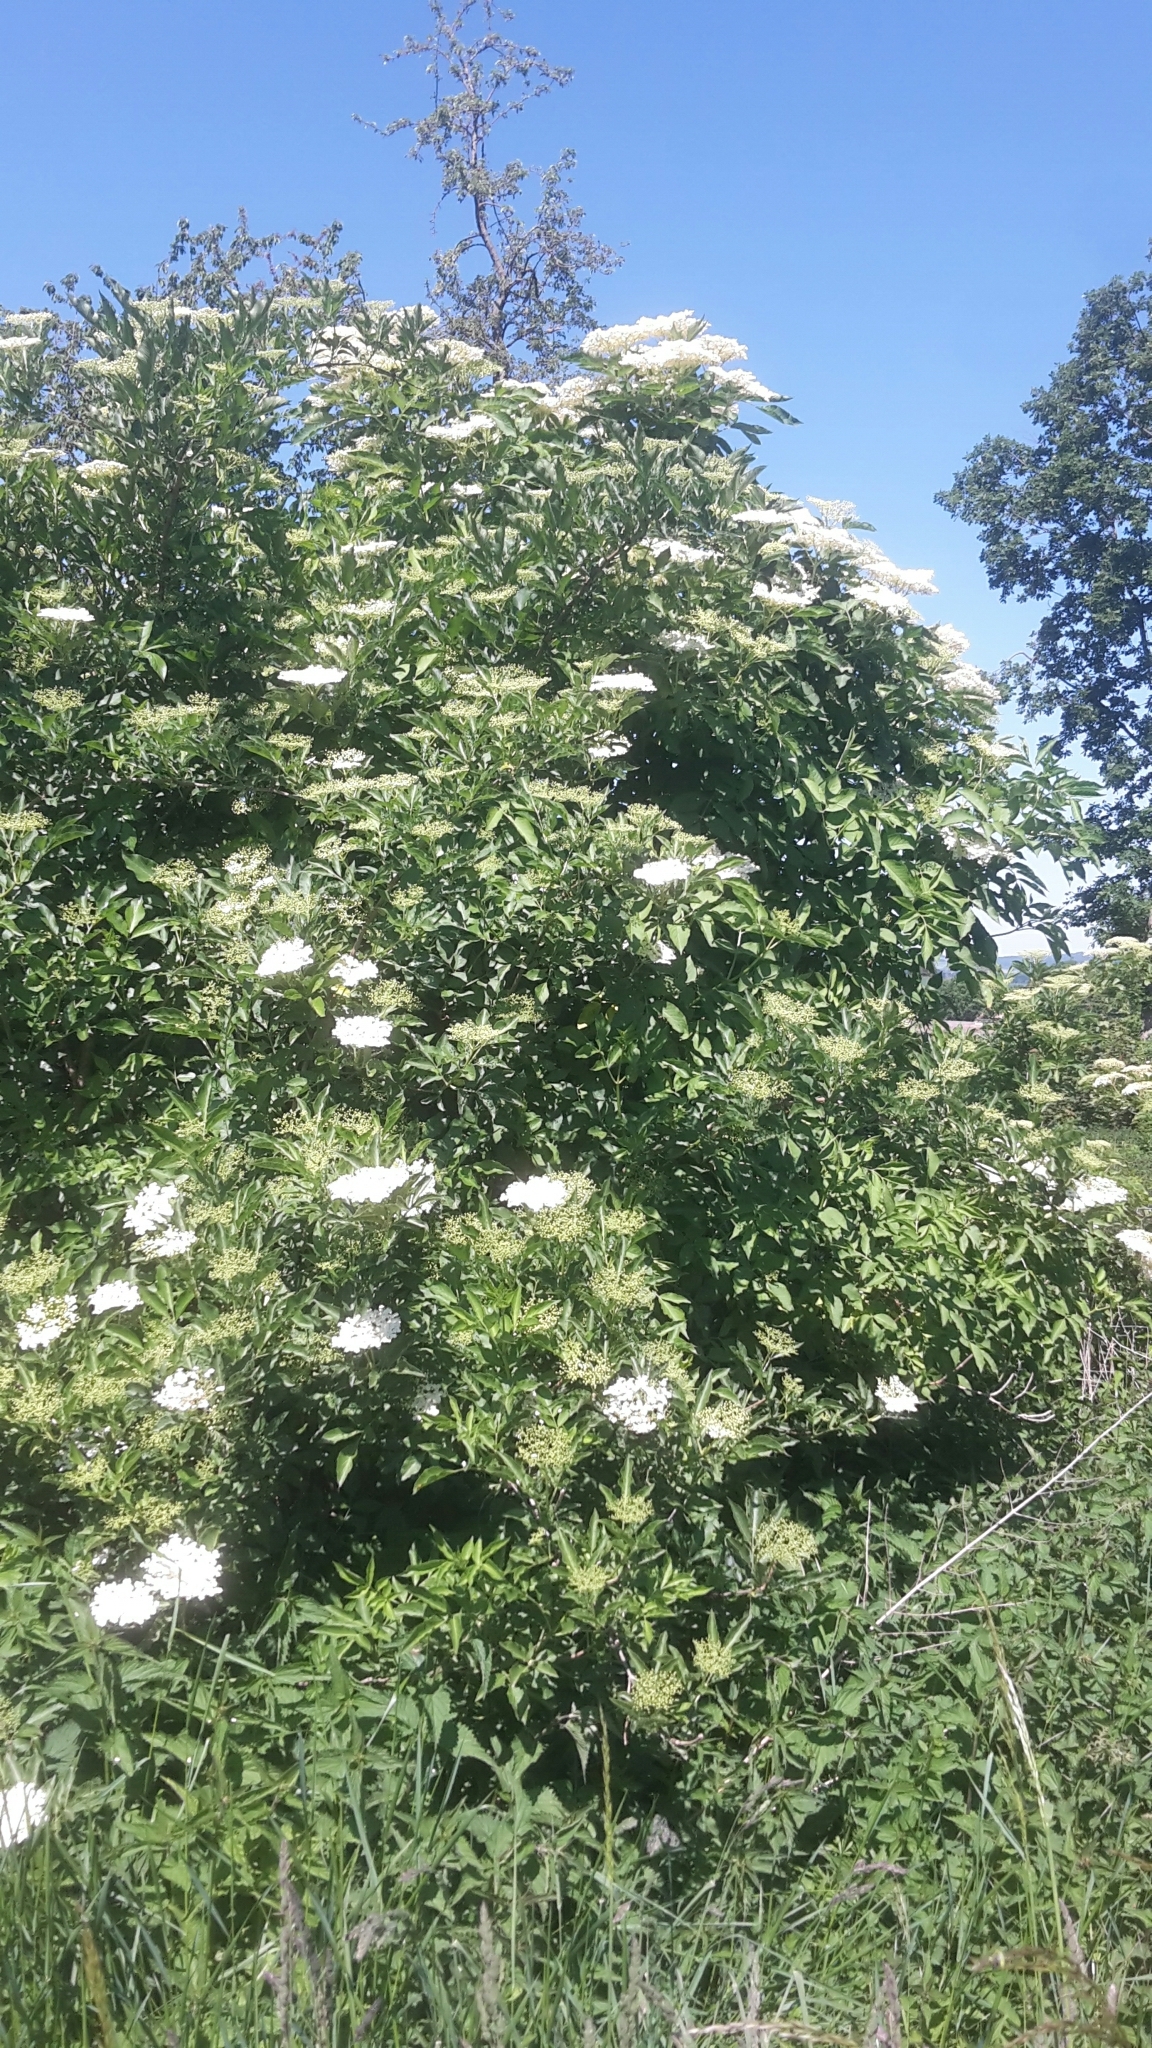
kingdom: Plantae
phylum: Tracheophyta
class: Magnoliopsida
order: Dipsacales
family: Viburnaceae
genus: Sambucus
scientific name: Sambucus nigra
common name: Elder
